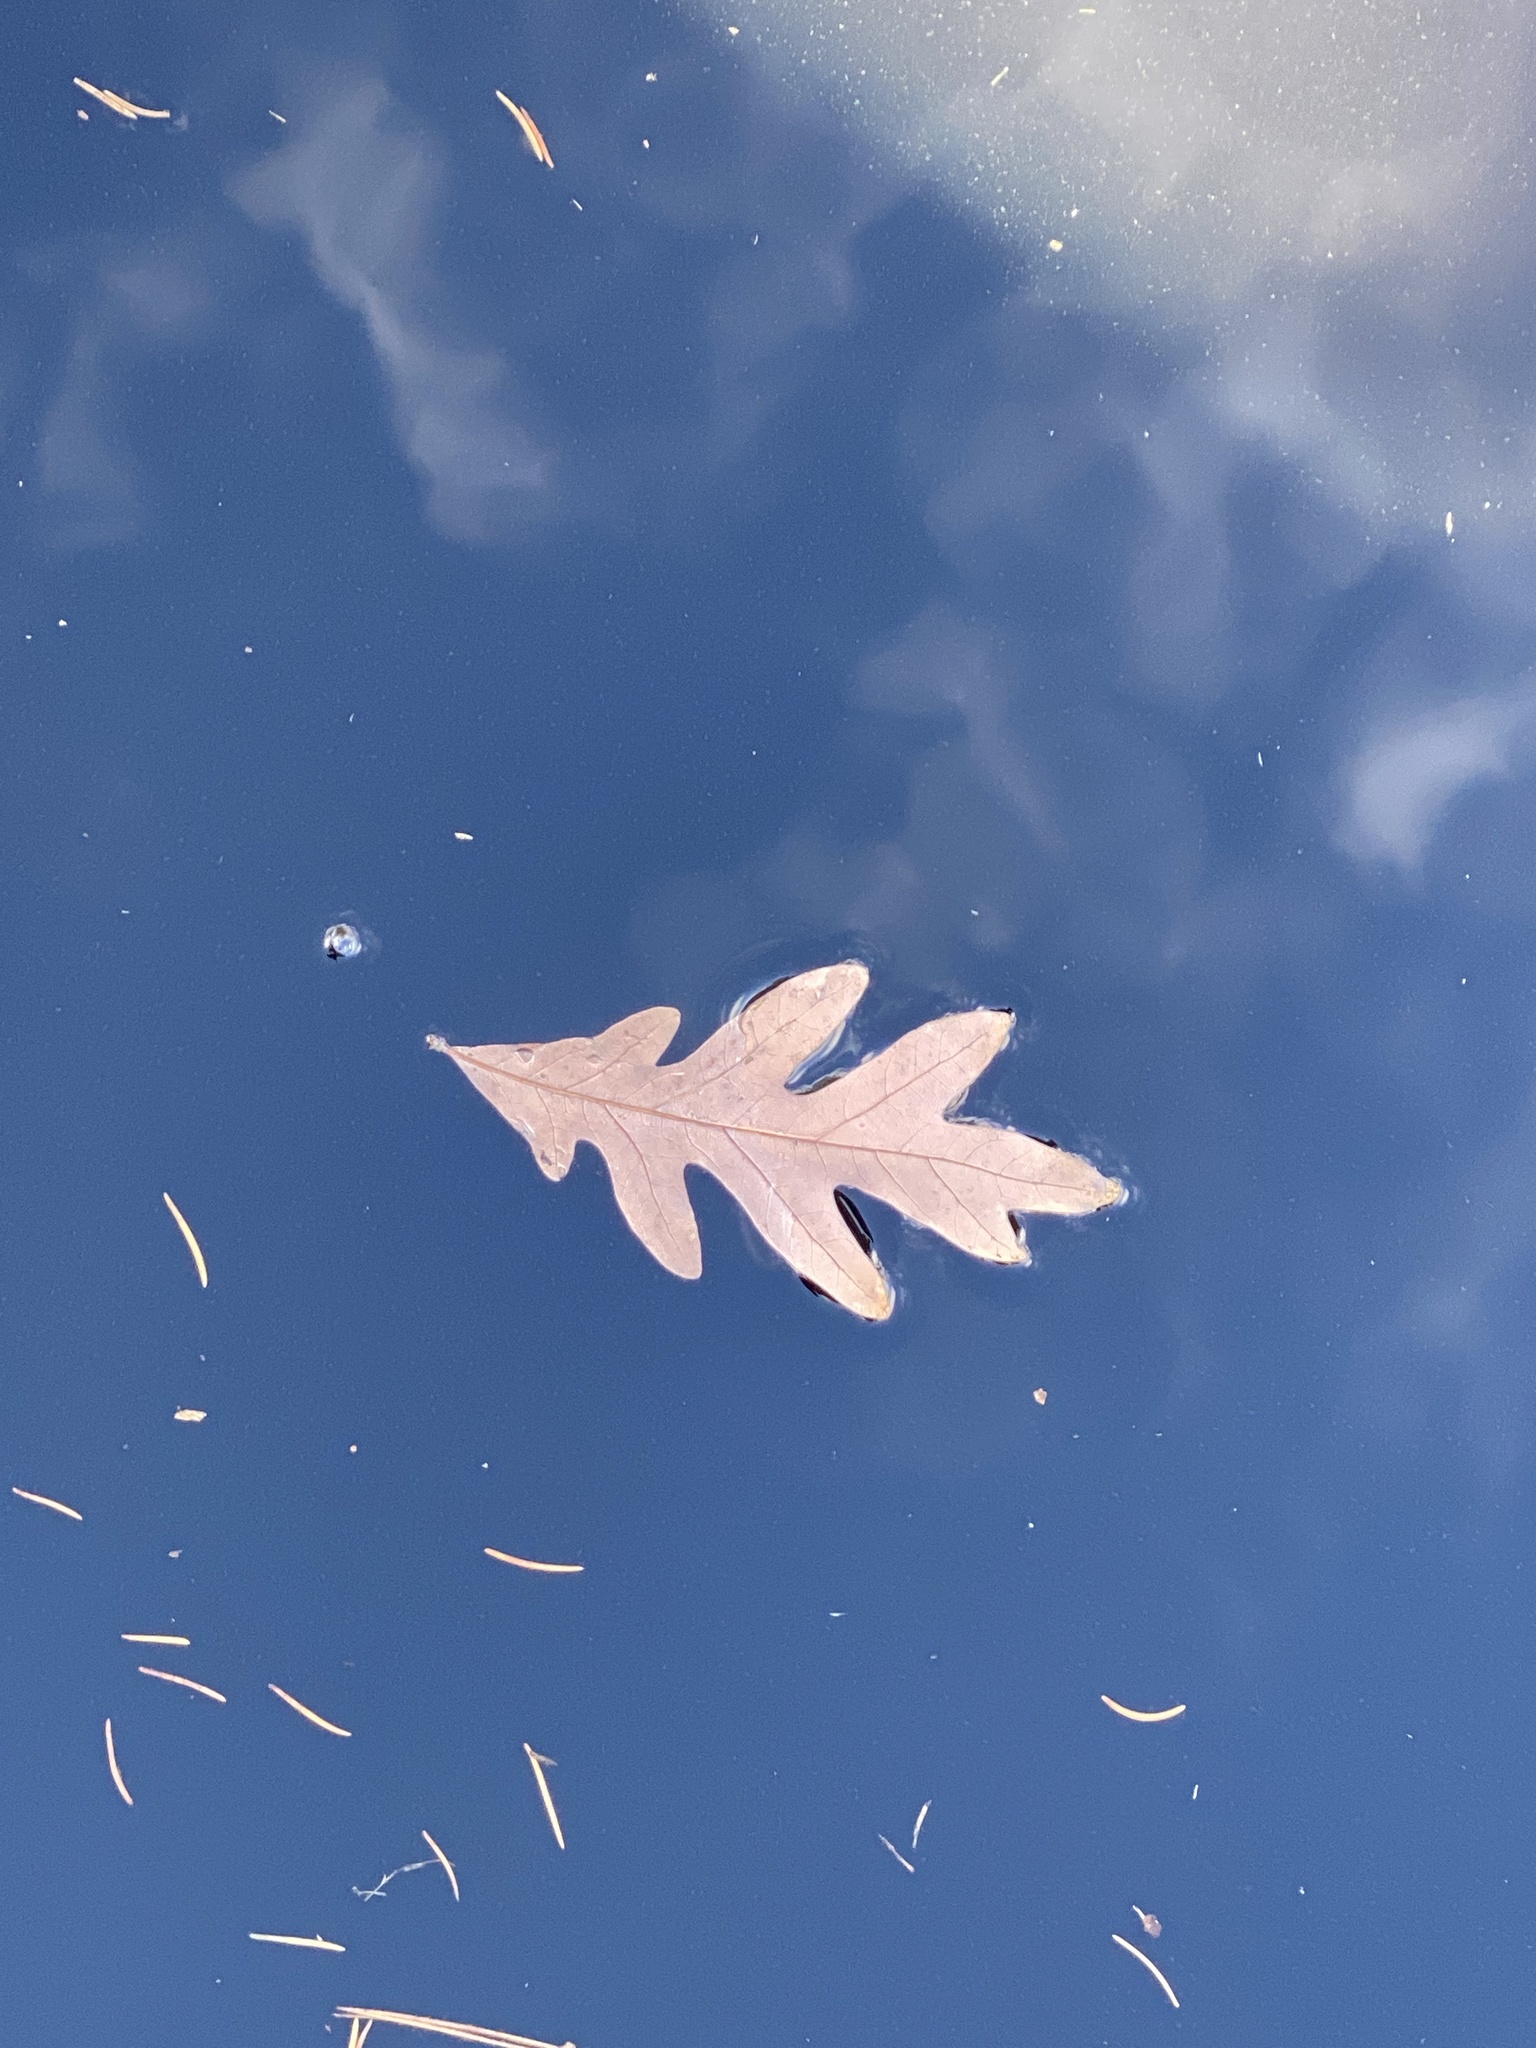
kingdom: Plantae
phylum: Tracheophyta
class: Magnoliopsida
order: Fagales
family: Fagaceae
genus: Quercus
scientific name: Quercus alba
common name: White oak
